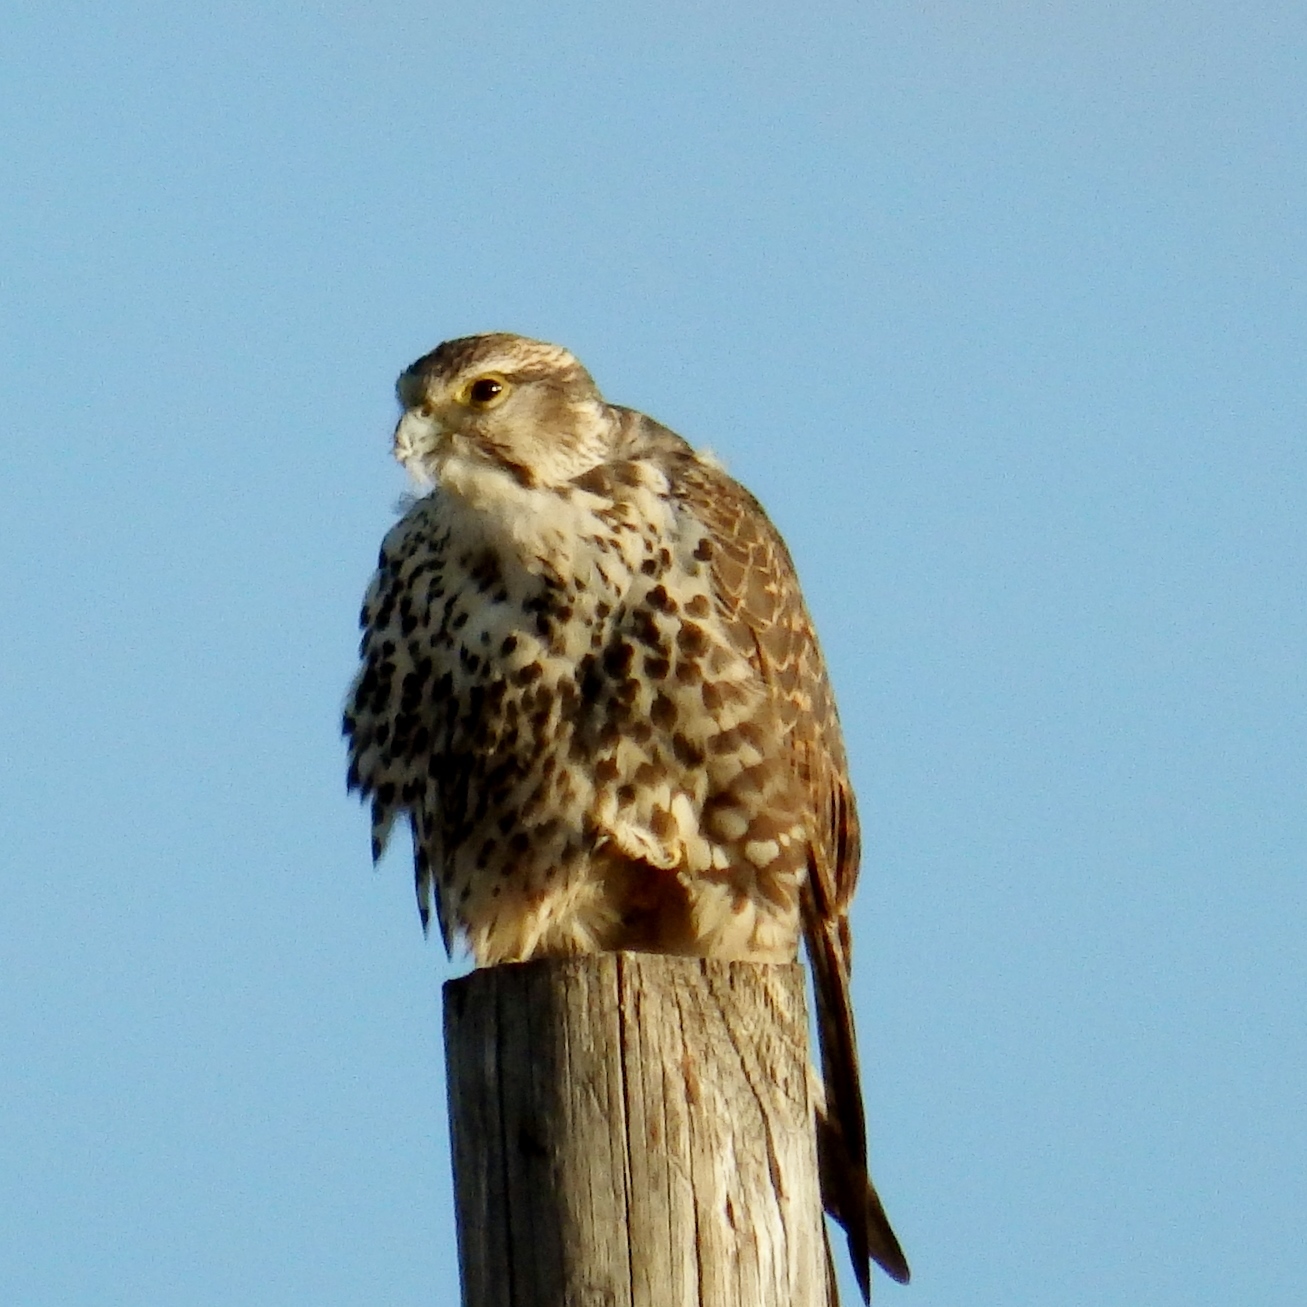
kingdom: Animalia
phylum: Chordata
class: Aves
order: Falconiformes
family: Falconidae
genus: Falco
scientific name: Falco cherrug
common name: Saker falcon
